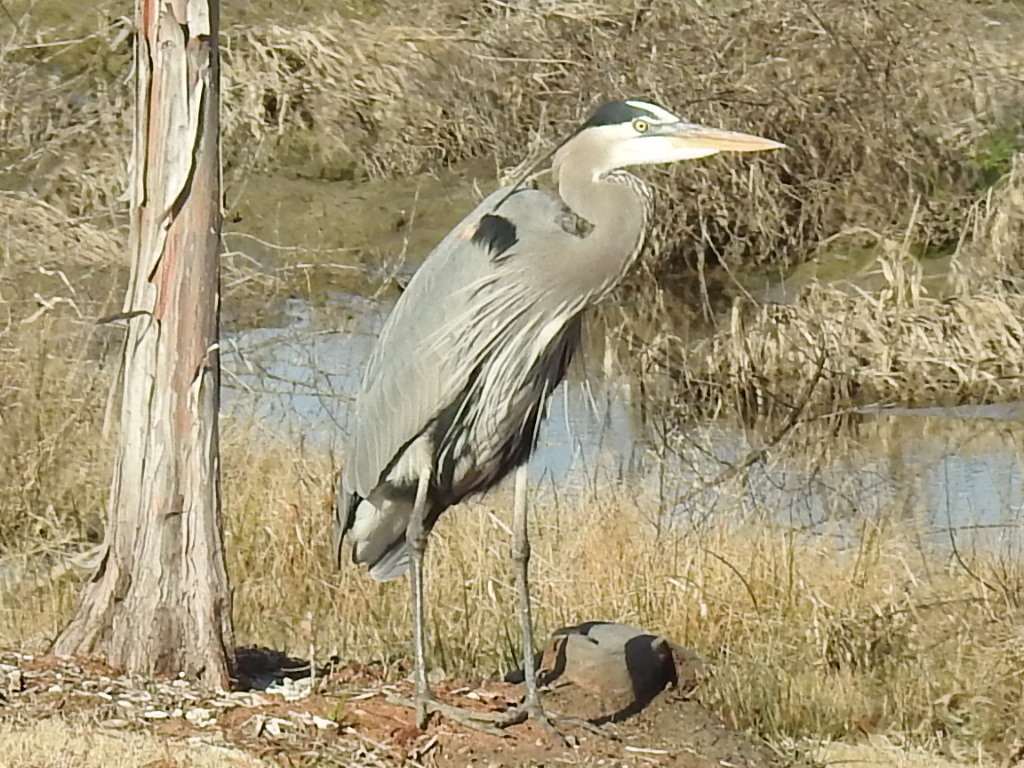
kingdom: Animalia
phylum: Chordata
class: Aves
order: Pelecaniformes
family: Ardeidae
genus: Ardea
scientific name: Ardea herodias
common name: Great blue heron
